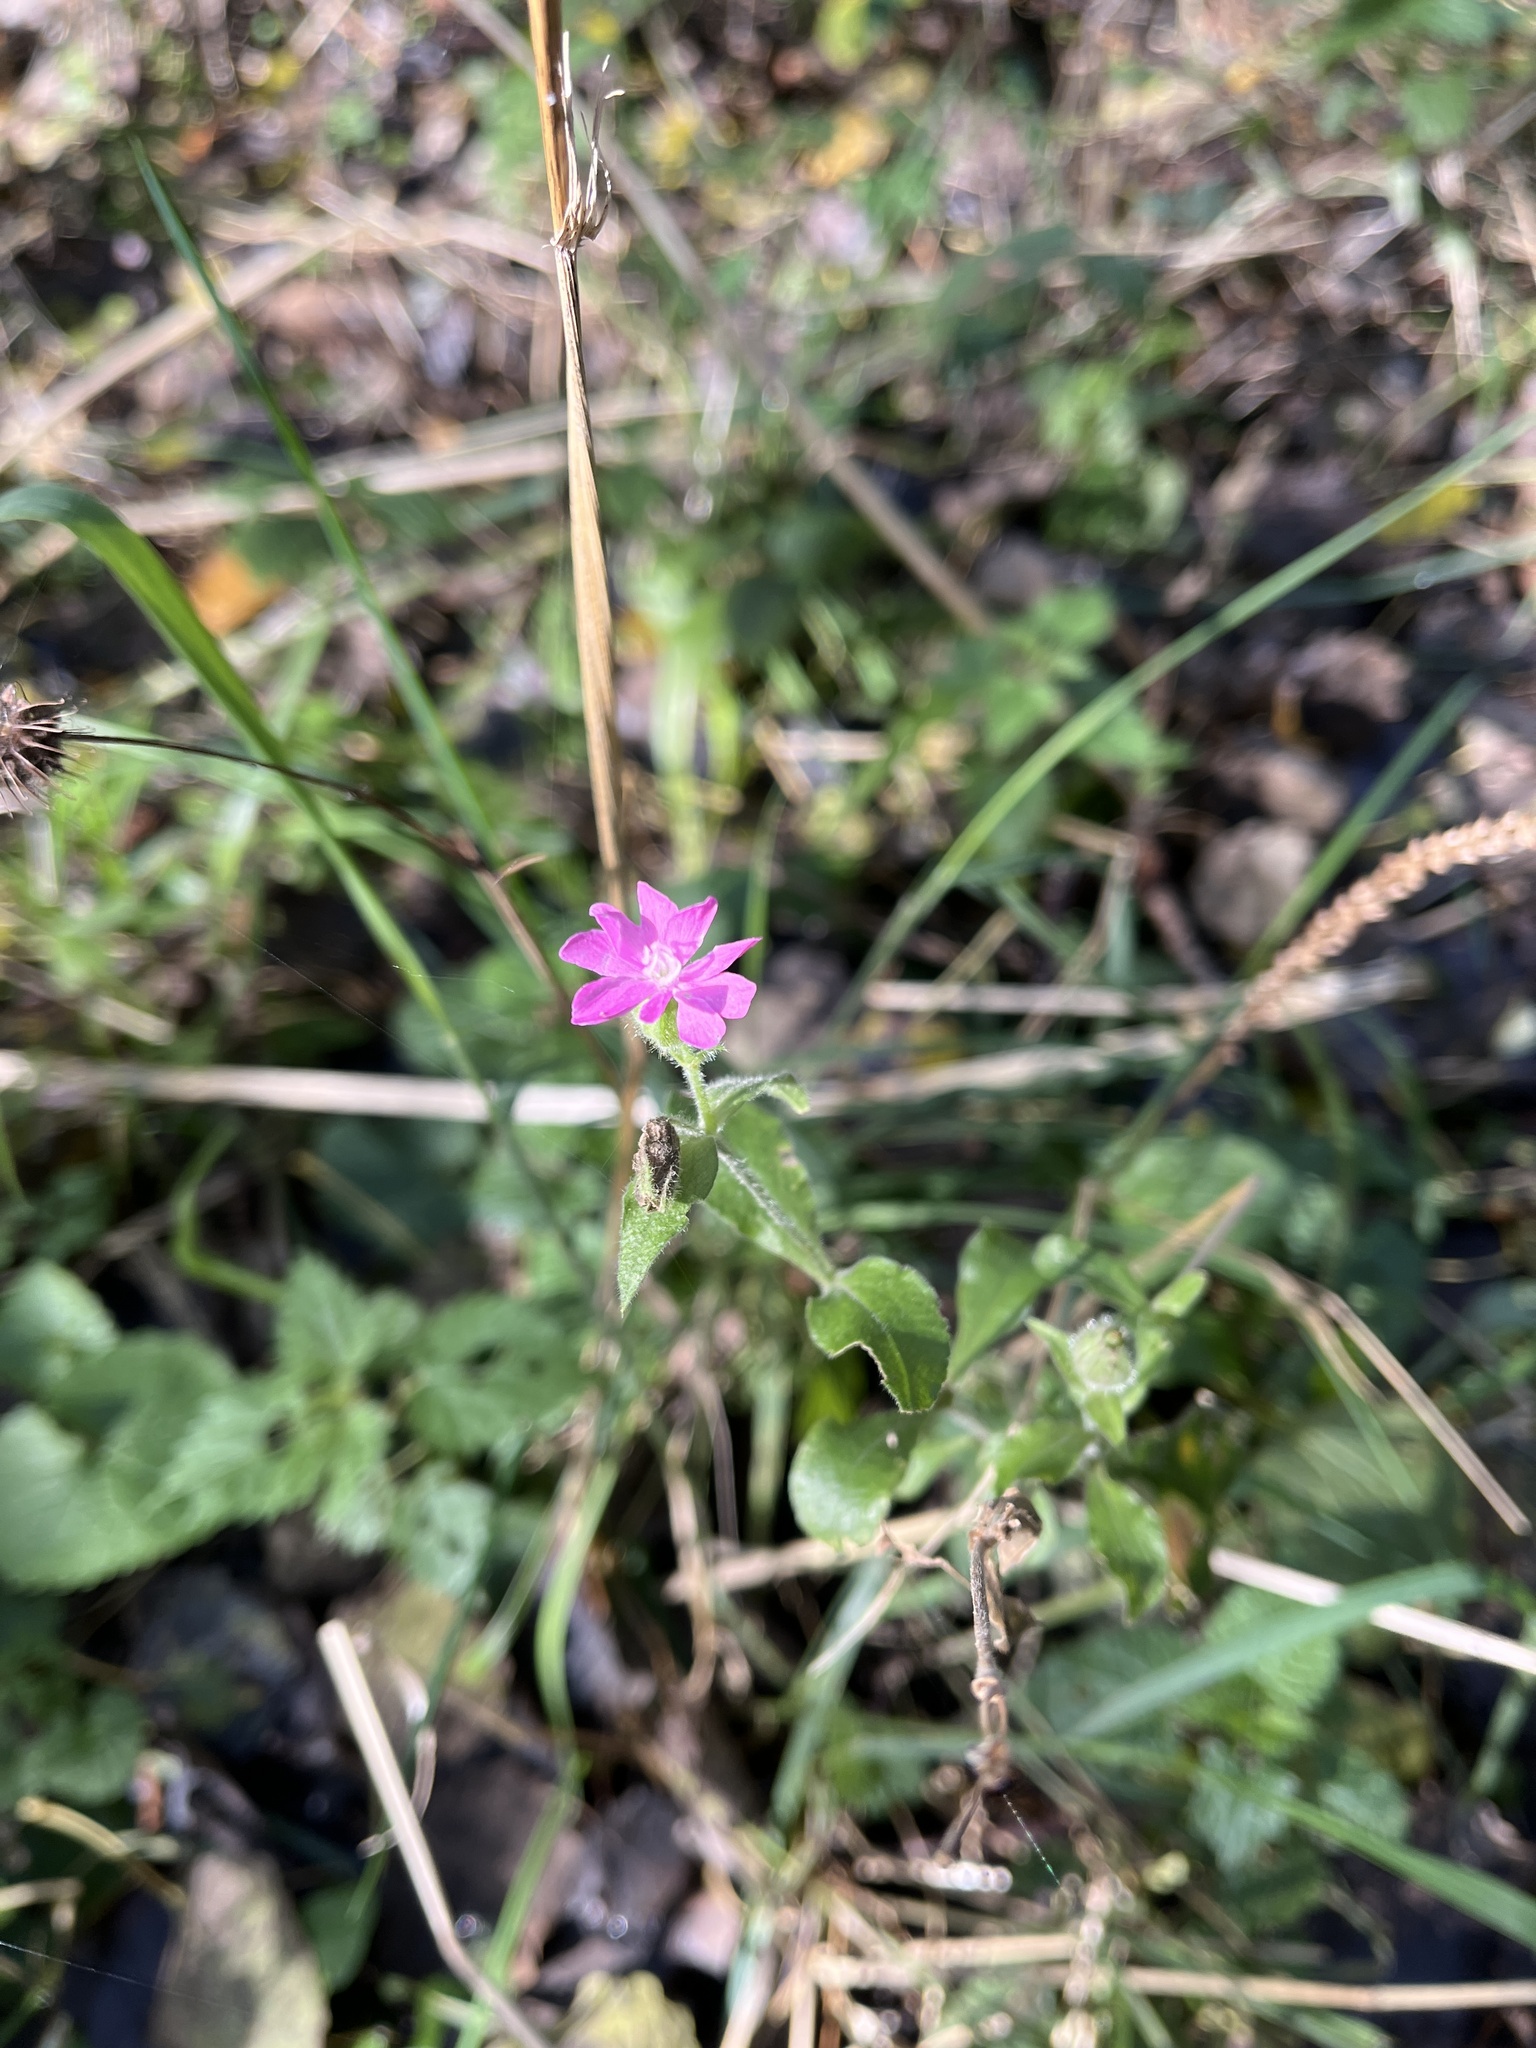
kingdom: Plantae
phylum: Tracheophyta
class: Magnoliopsida
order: Caryophyllales
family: Caryophyllaceae
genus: Silene
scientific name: Silene dioica
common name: Red campion
